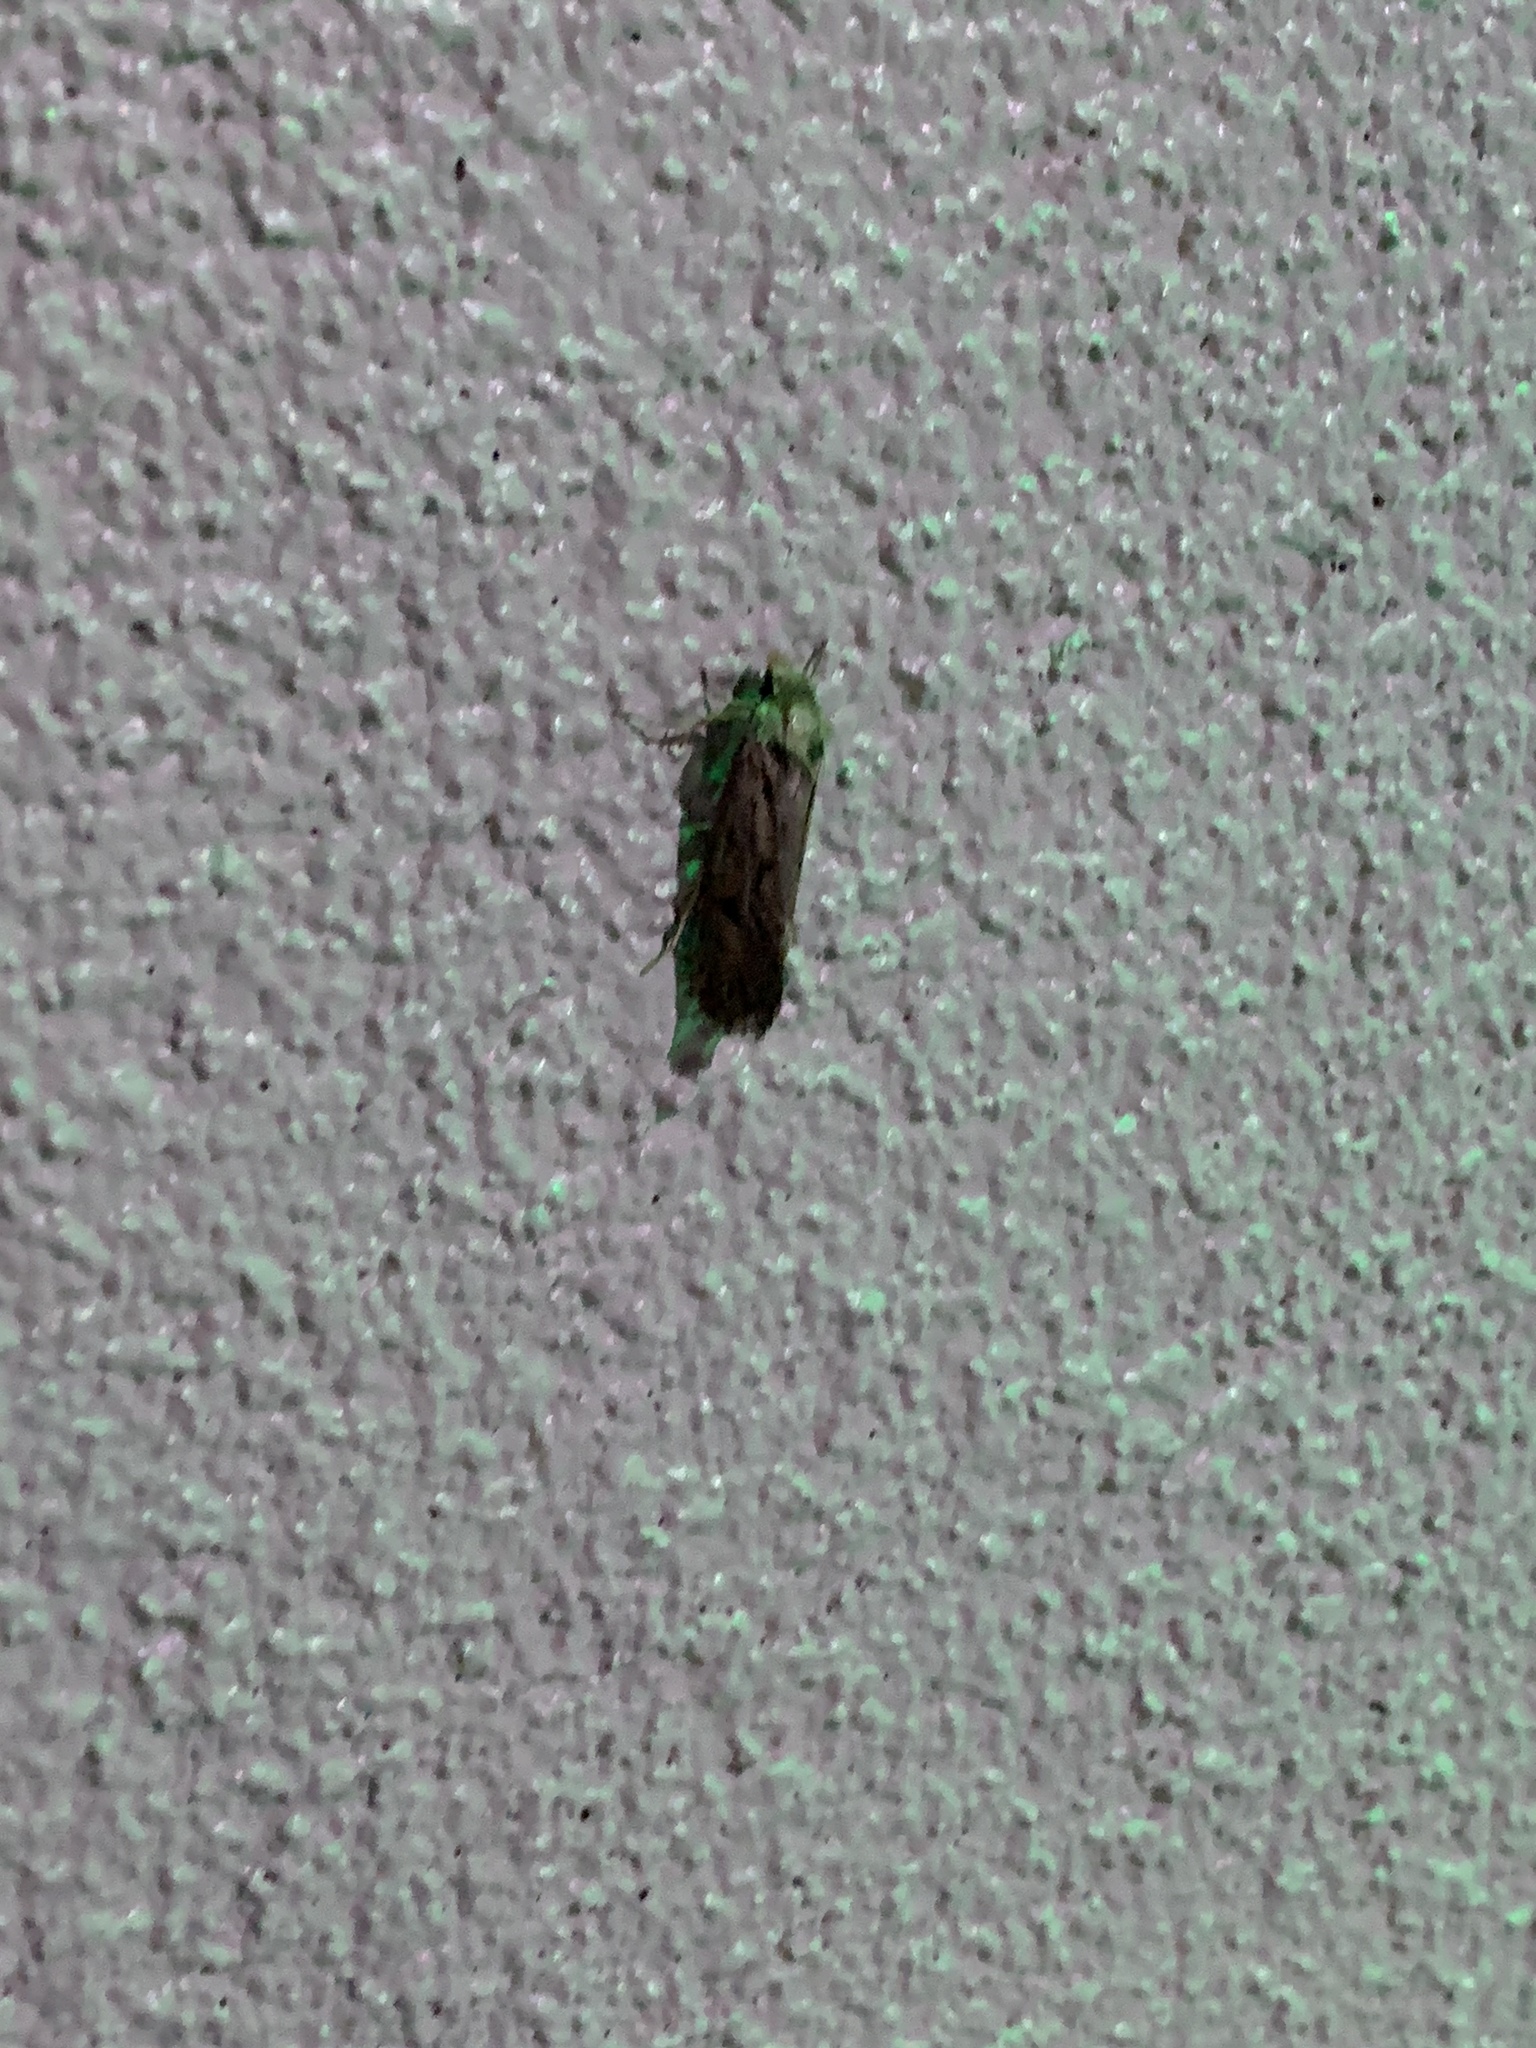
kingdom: Animalia
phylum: Arthropoda
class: Insecta
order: Lepidoptera
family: Tineidae
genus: Acrolophus
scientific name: Acrolophus popeanella
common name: Clemens' grass tubeworm moth
